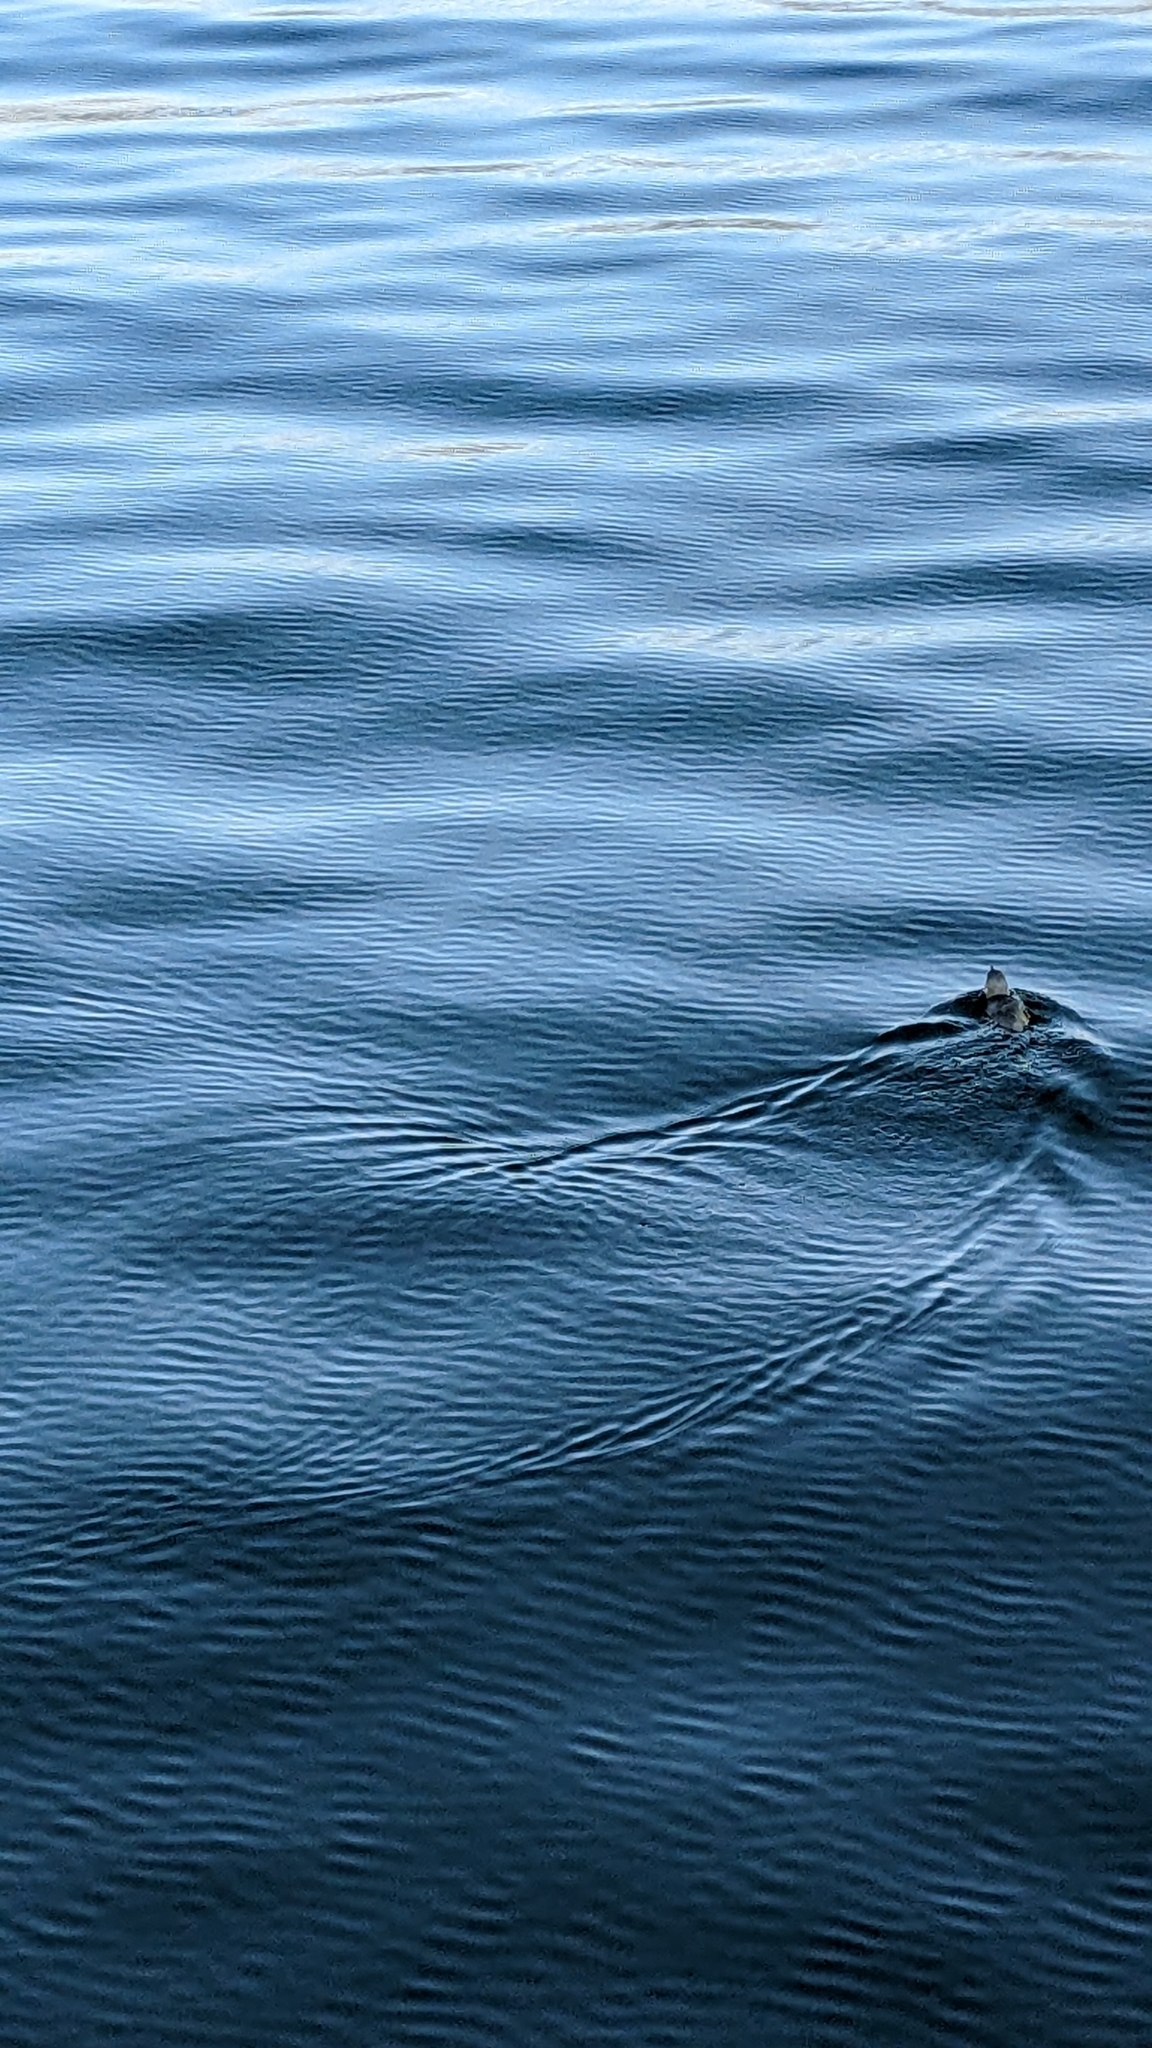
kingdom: Animalia
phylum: Chordata
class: Aves
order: Sphenisciformes
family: Spheniscidae
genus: Eudyptula
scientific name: Eudyptula minor
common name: Little penguin
